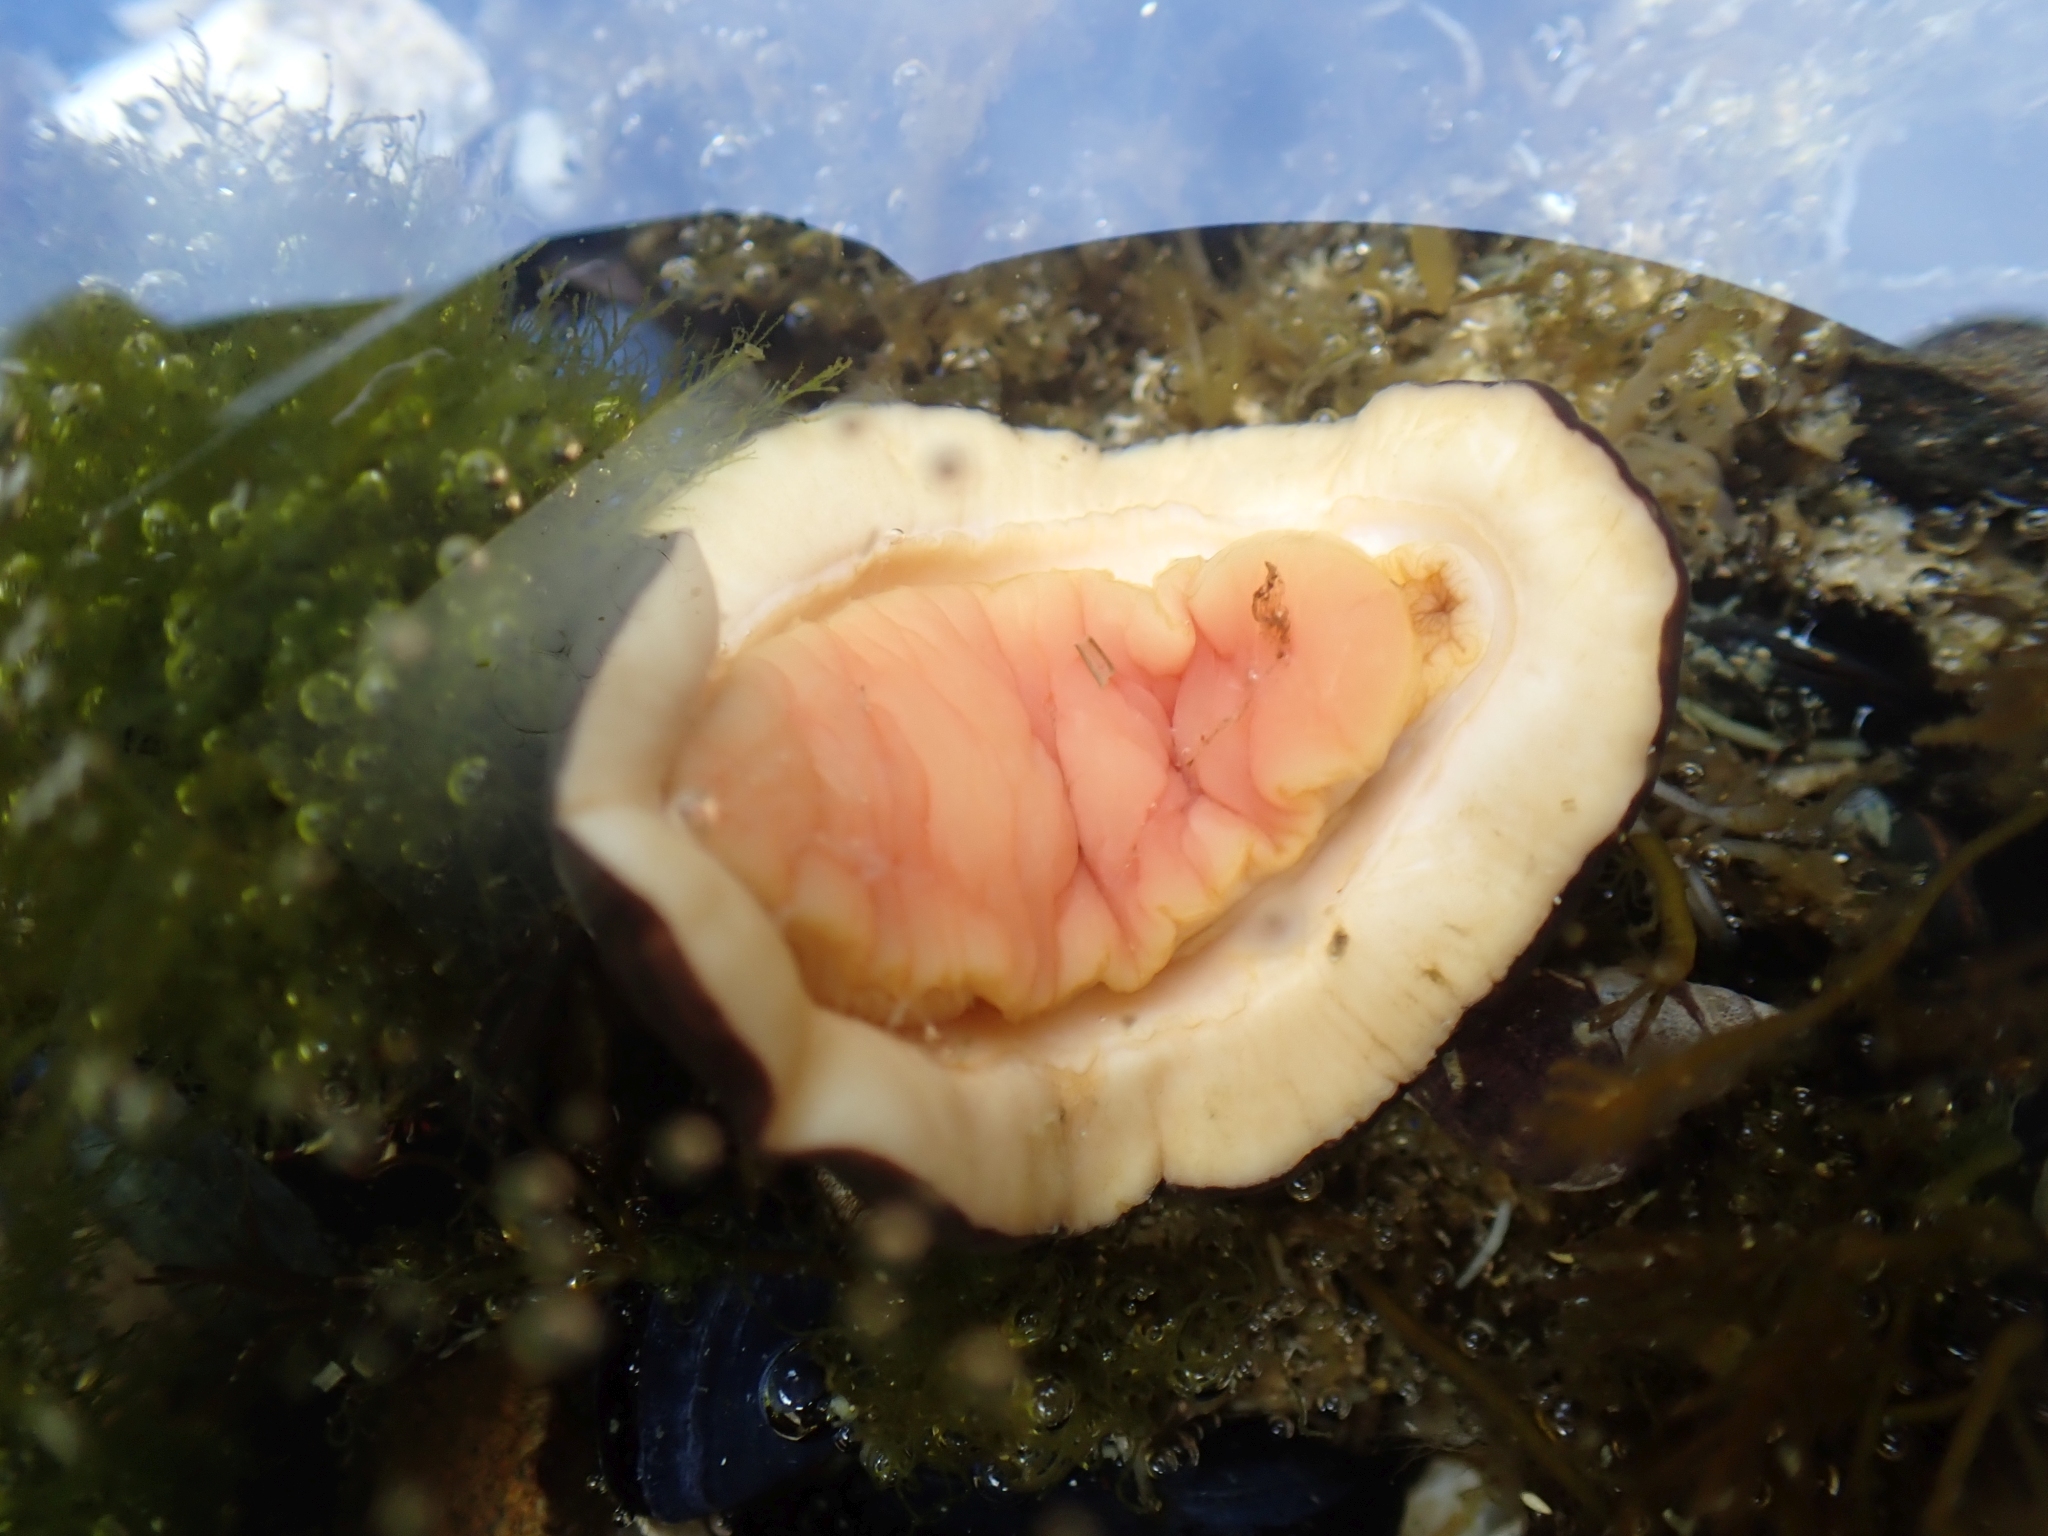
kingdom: Animalia
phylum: Mollusca
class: Polyplacophora
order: Chitonida
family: Mopaliidae
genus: Katharina
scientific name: Katharina tunicata
